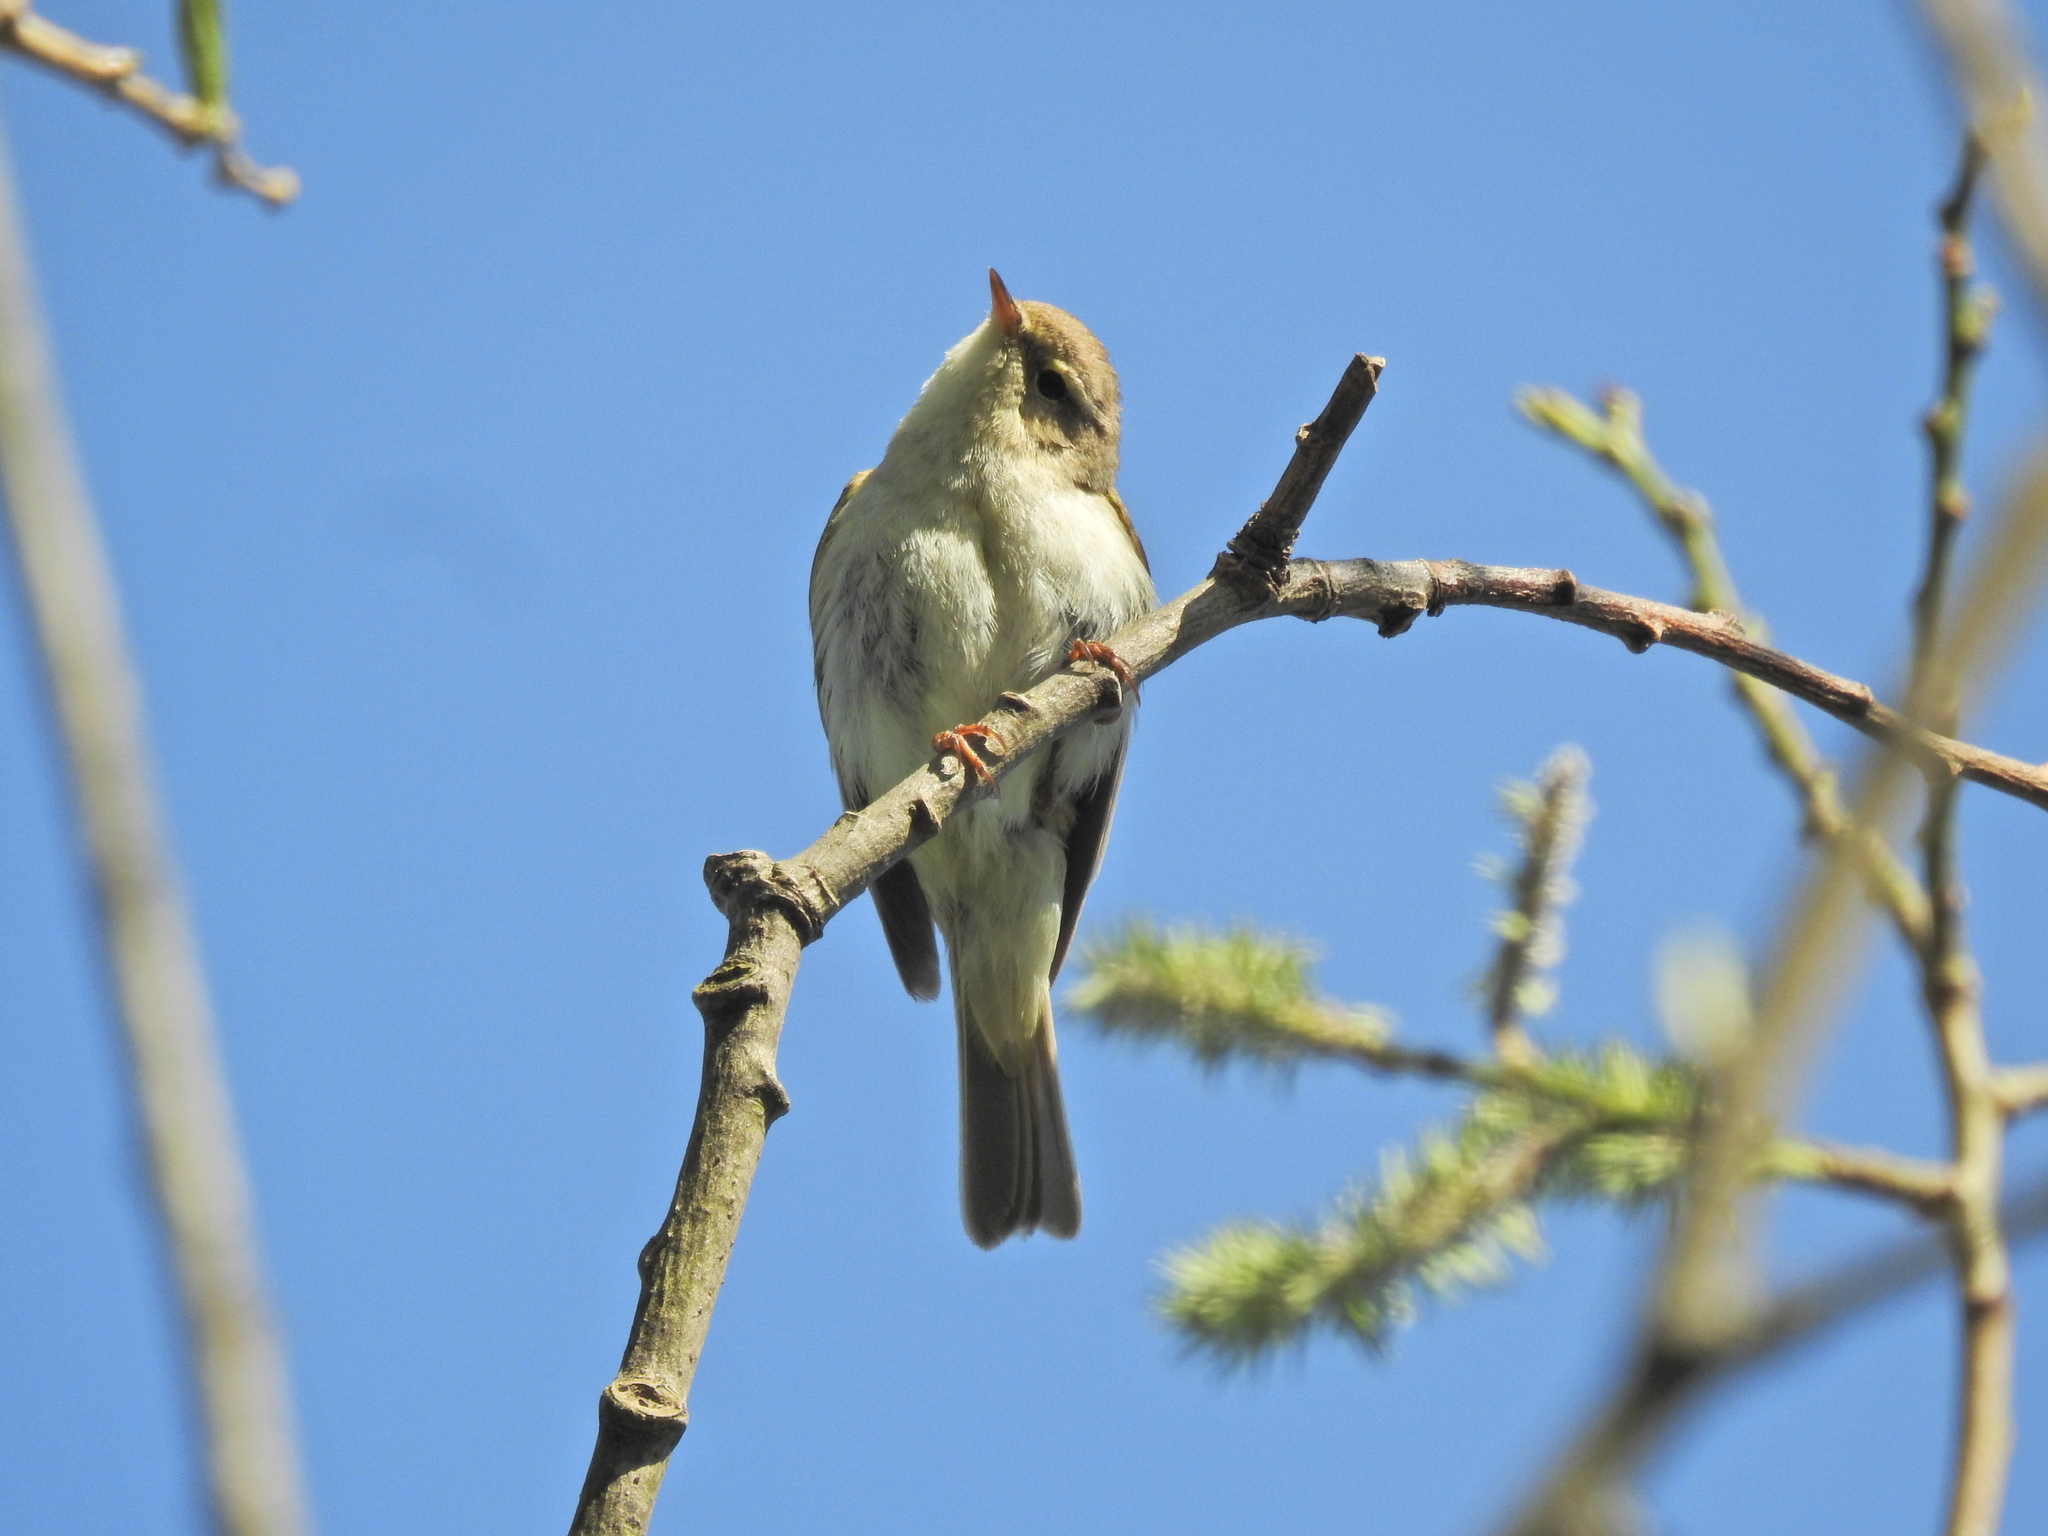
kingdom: Animalia
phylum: Chordata
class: Aves
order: Passeriformes
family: Phylloscopidae
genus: Phylloscopus
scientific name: Phylloscopus trochilus
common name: Willow warbler
